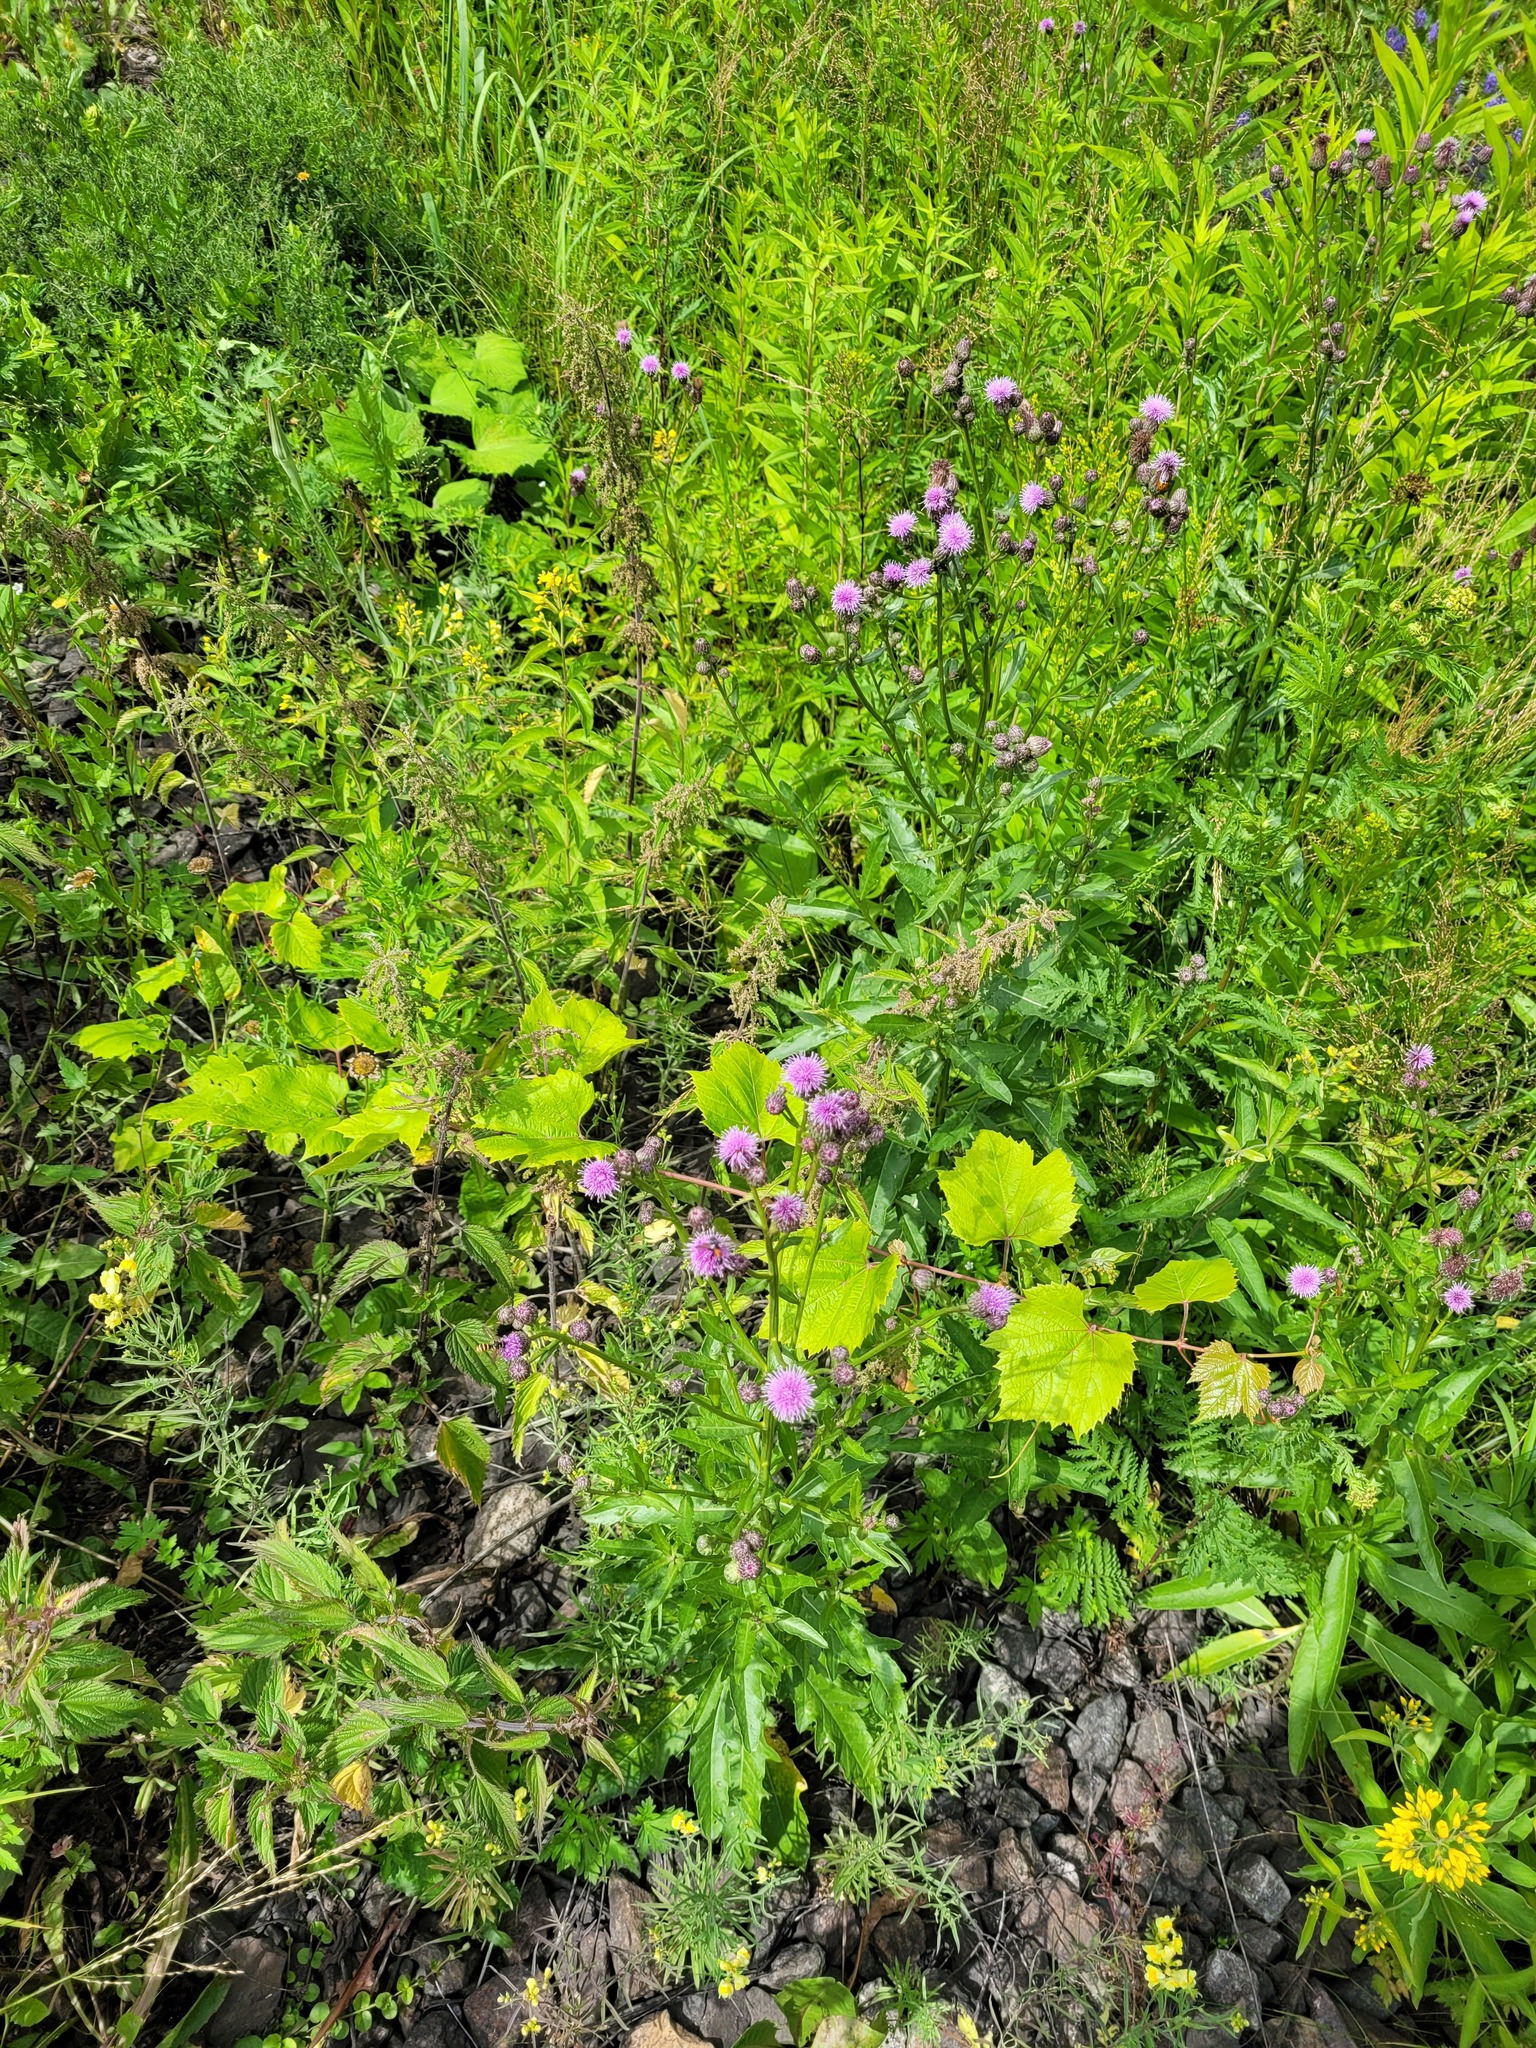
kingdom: Plantae
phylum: Tracheophyta
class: Magnoliopsida
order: Asterales
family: Asteraceae
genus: Cirsium
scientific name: Cirsium arvense
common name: Creeping thistle
